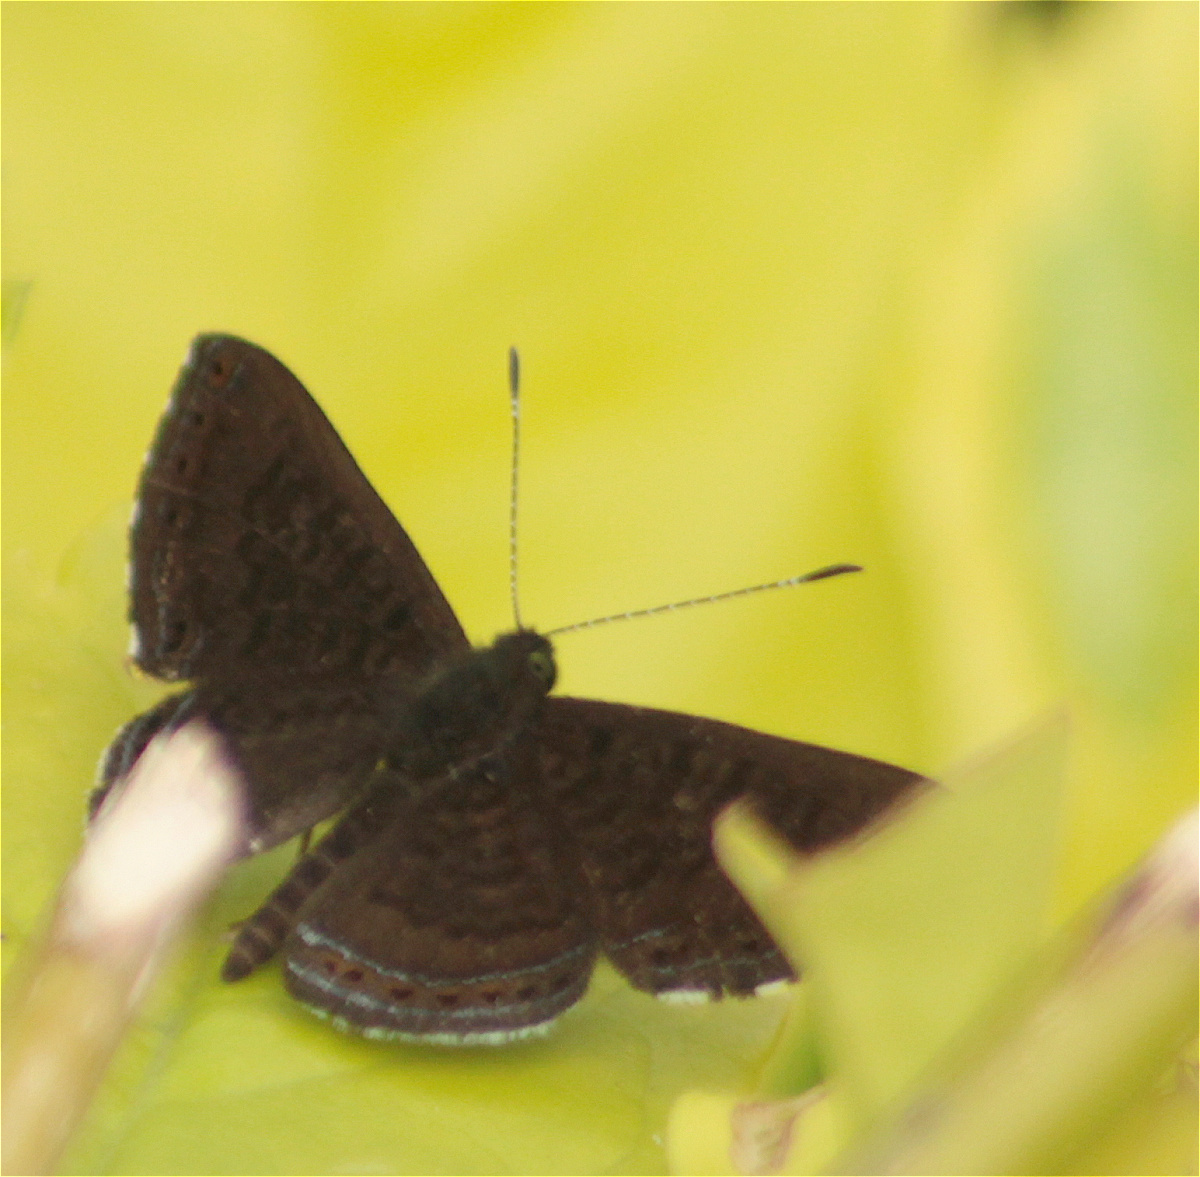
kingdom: Animalia
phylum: Arthropoda
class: Insecta
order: Lepidoptera
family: Riodinidae
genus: Detritivora
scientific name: Detritivora
